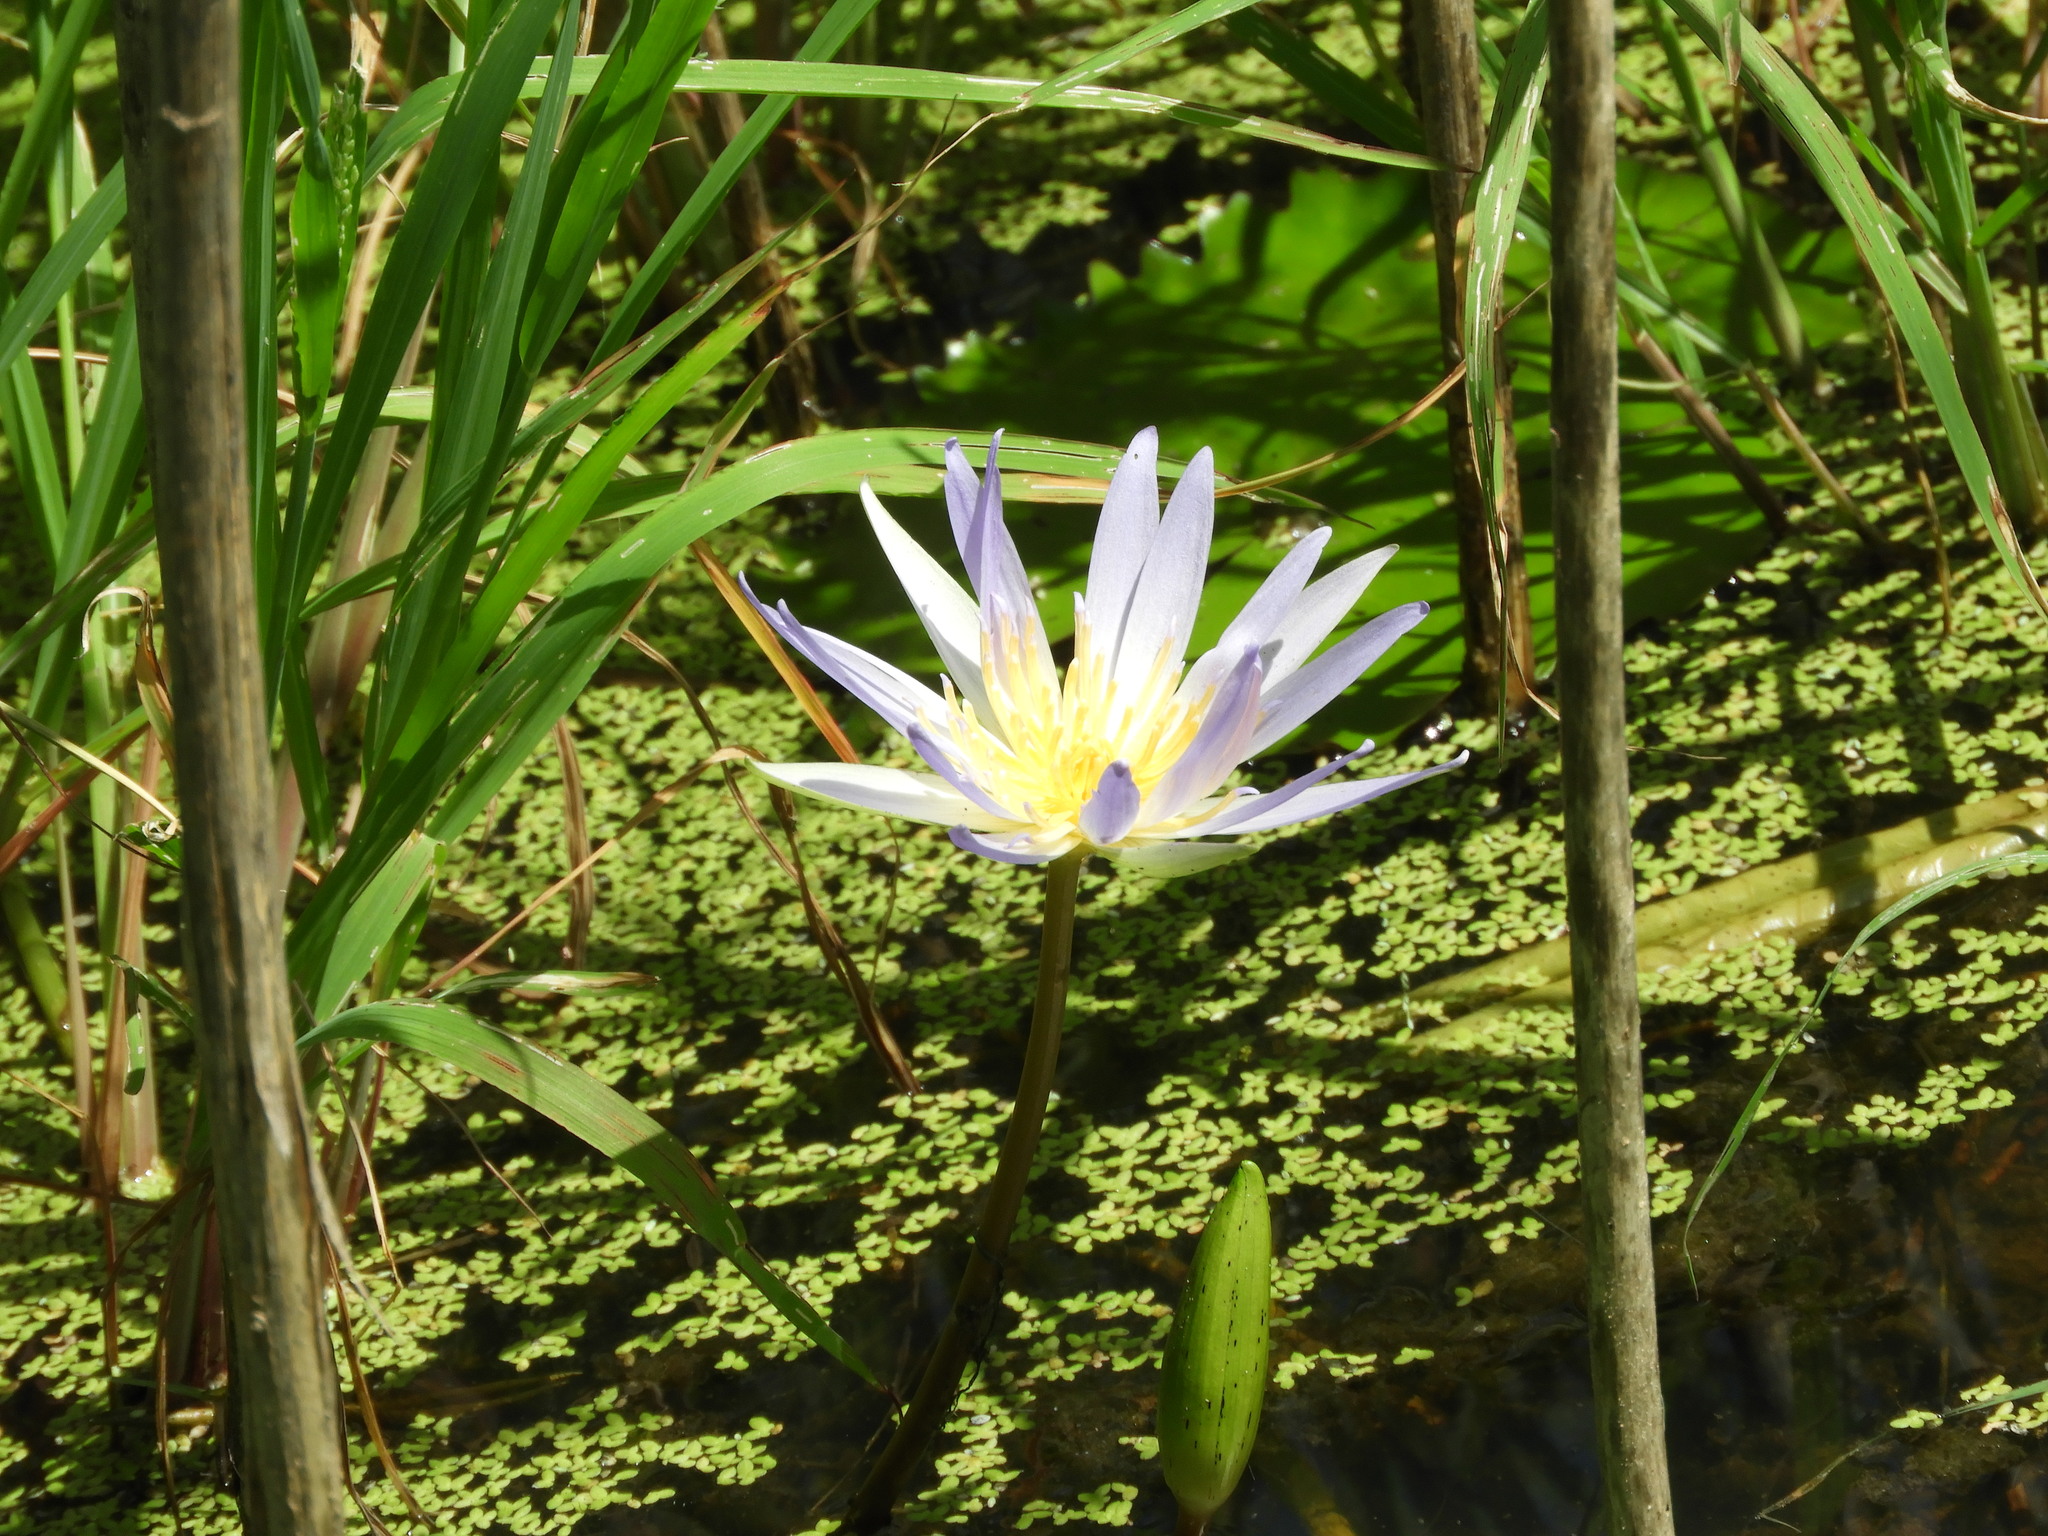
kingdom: Plantae
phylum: Tracheophyta
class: Magnoliopsida
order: Nymphaeales
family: Nymphaeaceae
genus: Nymphaea
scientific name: Nymphaea elegans
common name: Blue water-lily
